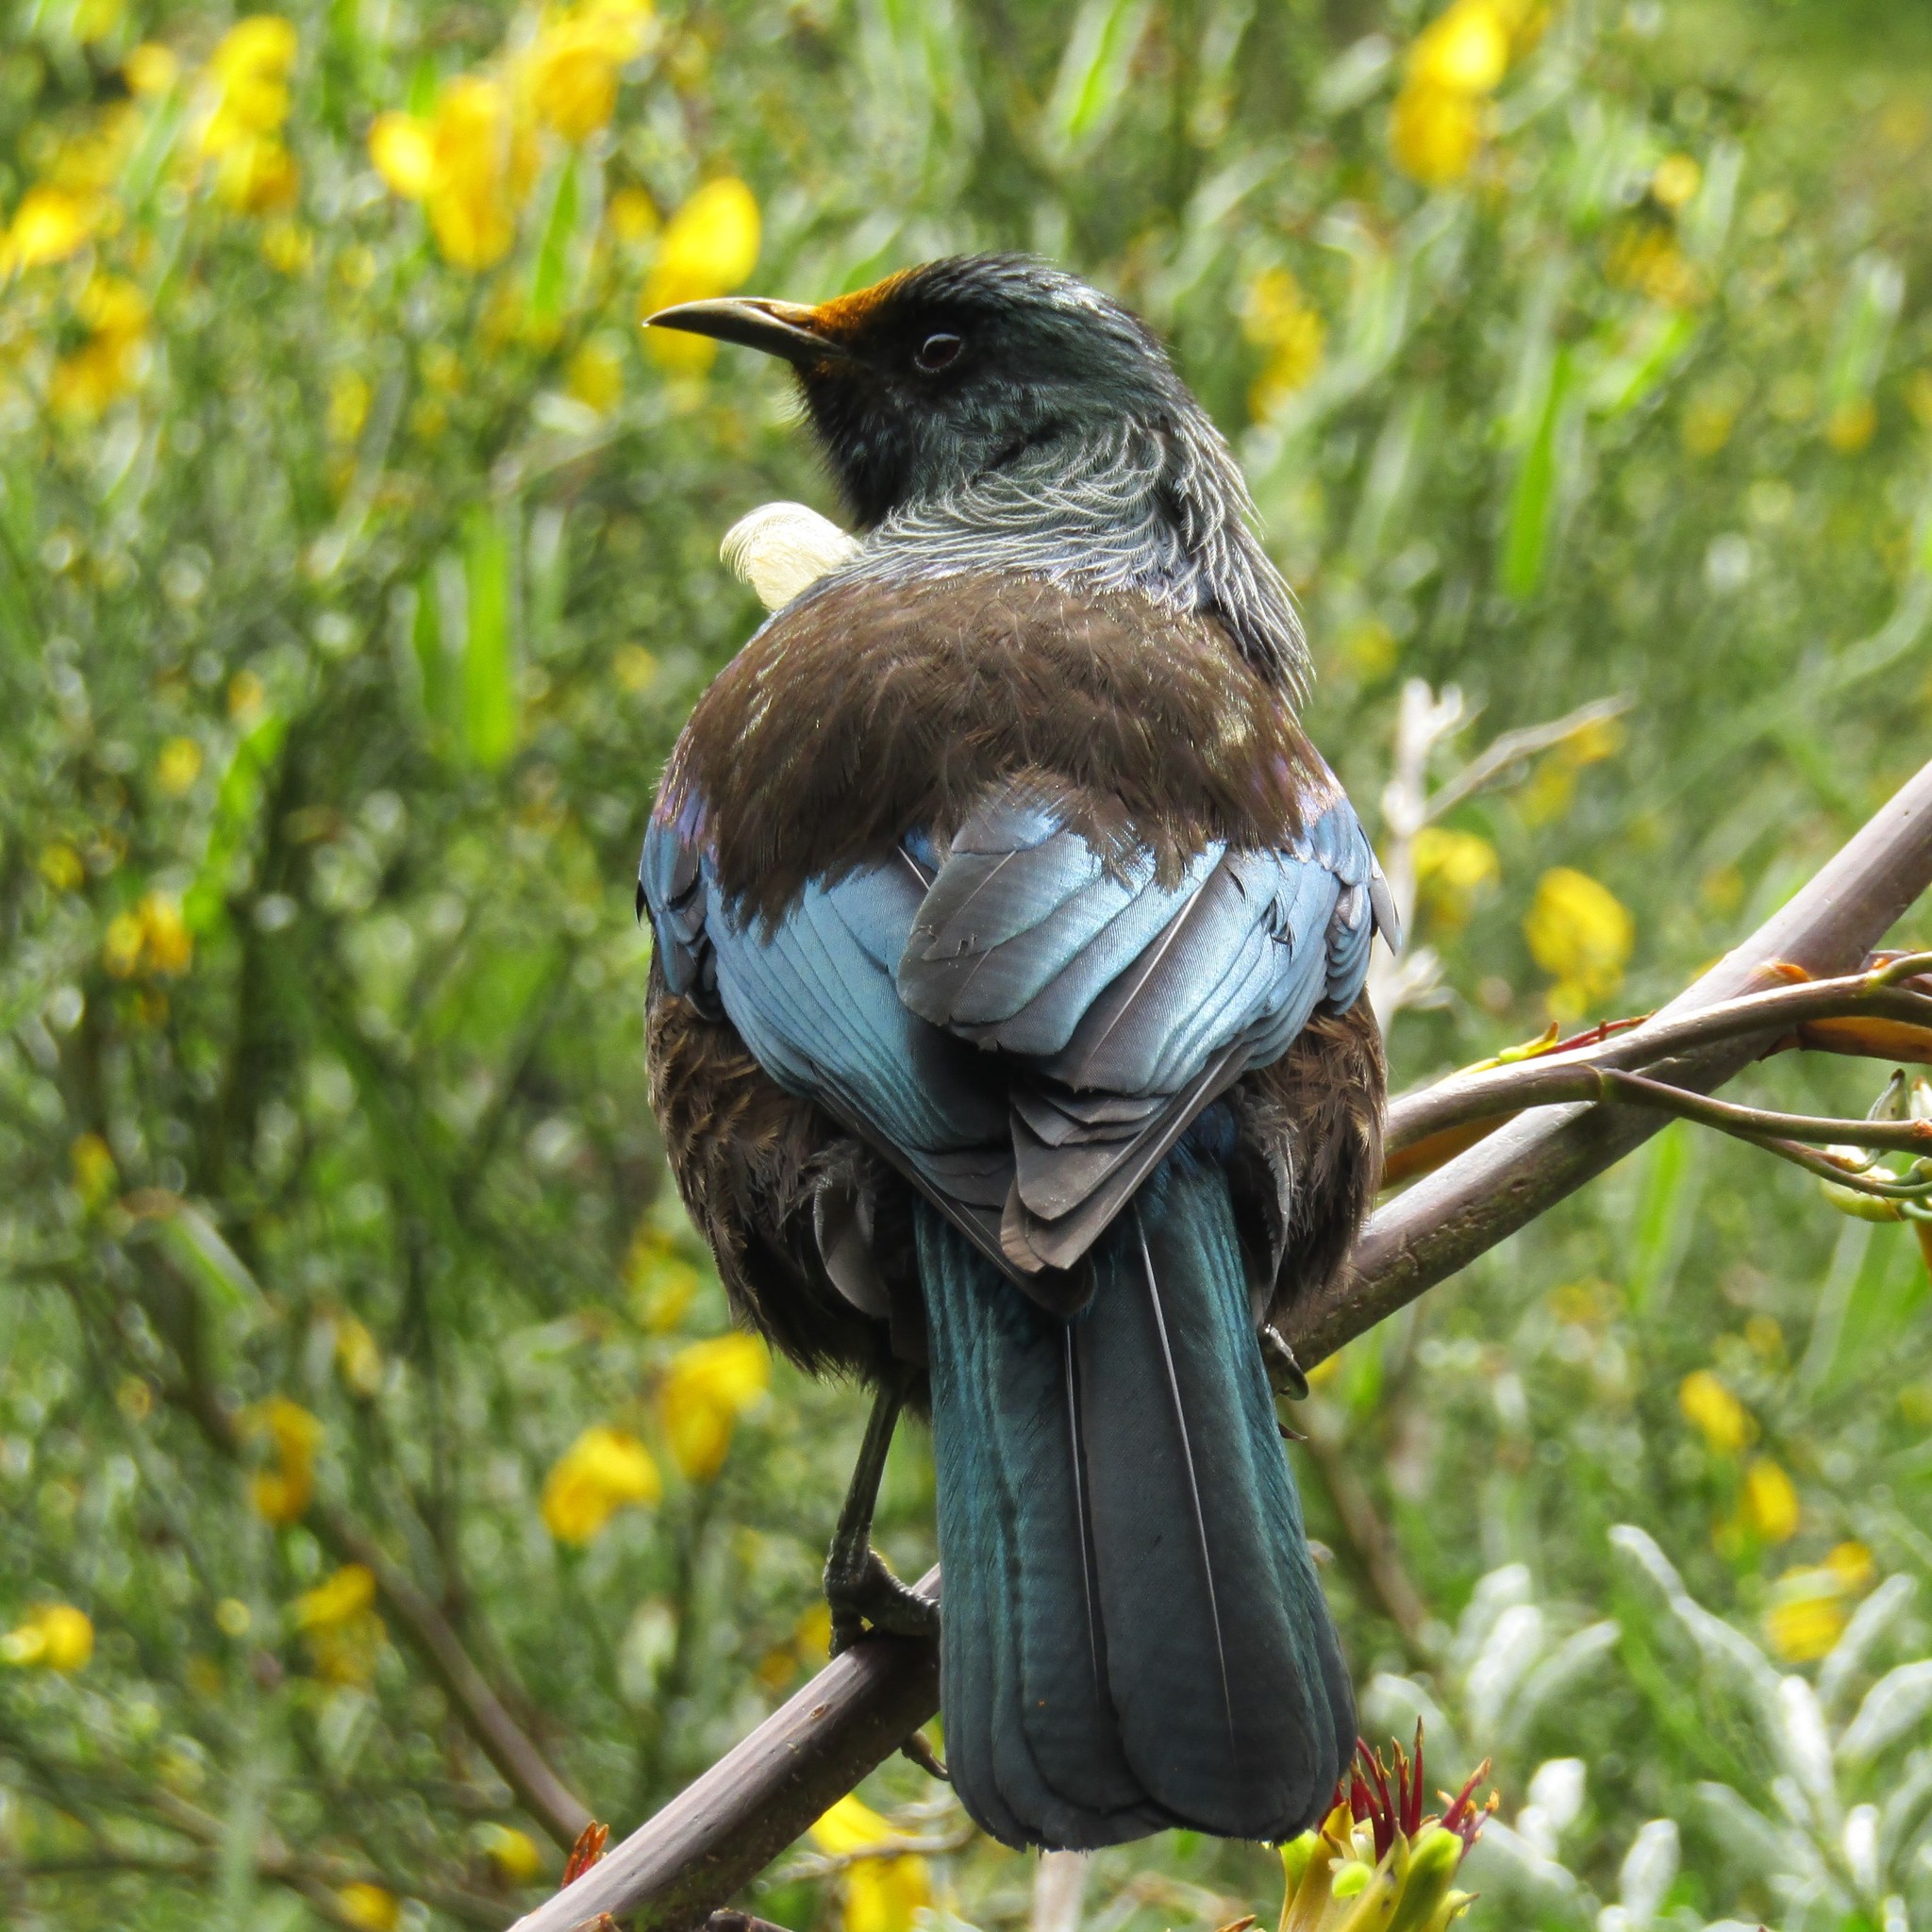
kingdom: Animalia
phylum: Chordata
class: Aves
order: Passeriformes
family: Meliphagidae
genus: Prosthemadera
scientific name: Prosthemadera novaeseelandiae
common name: Tui
